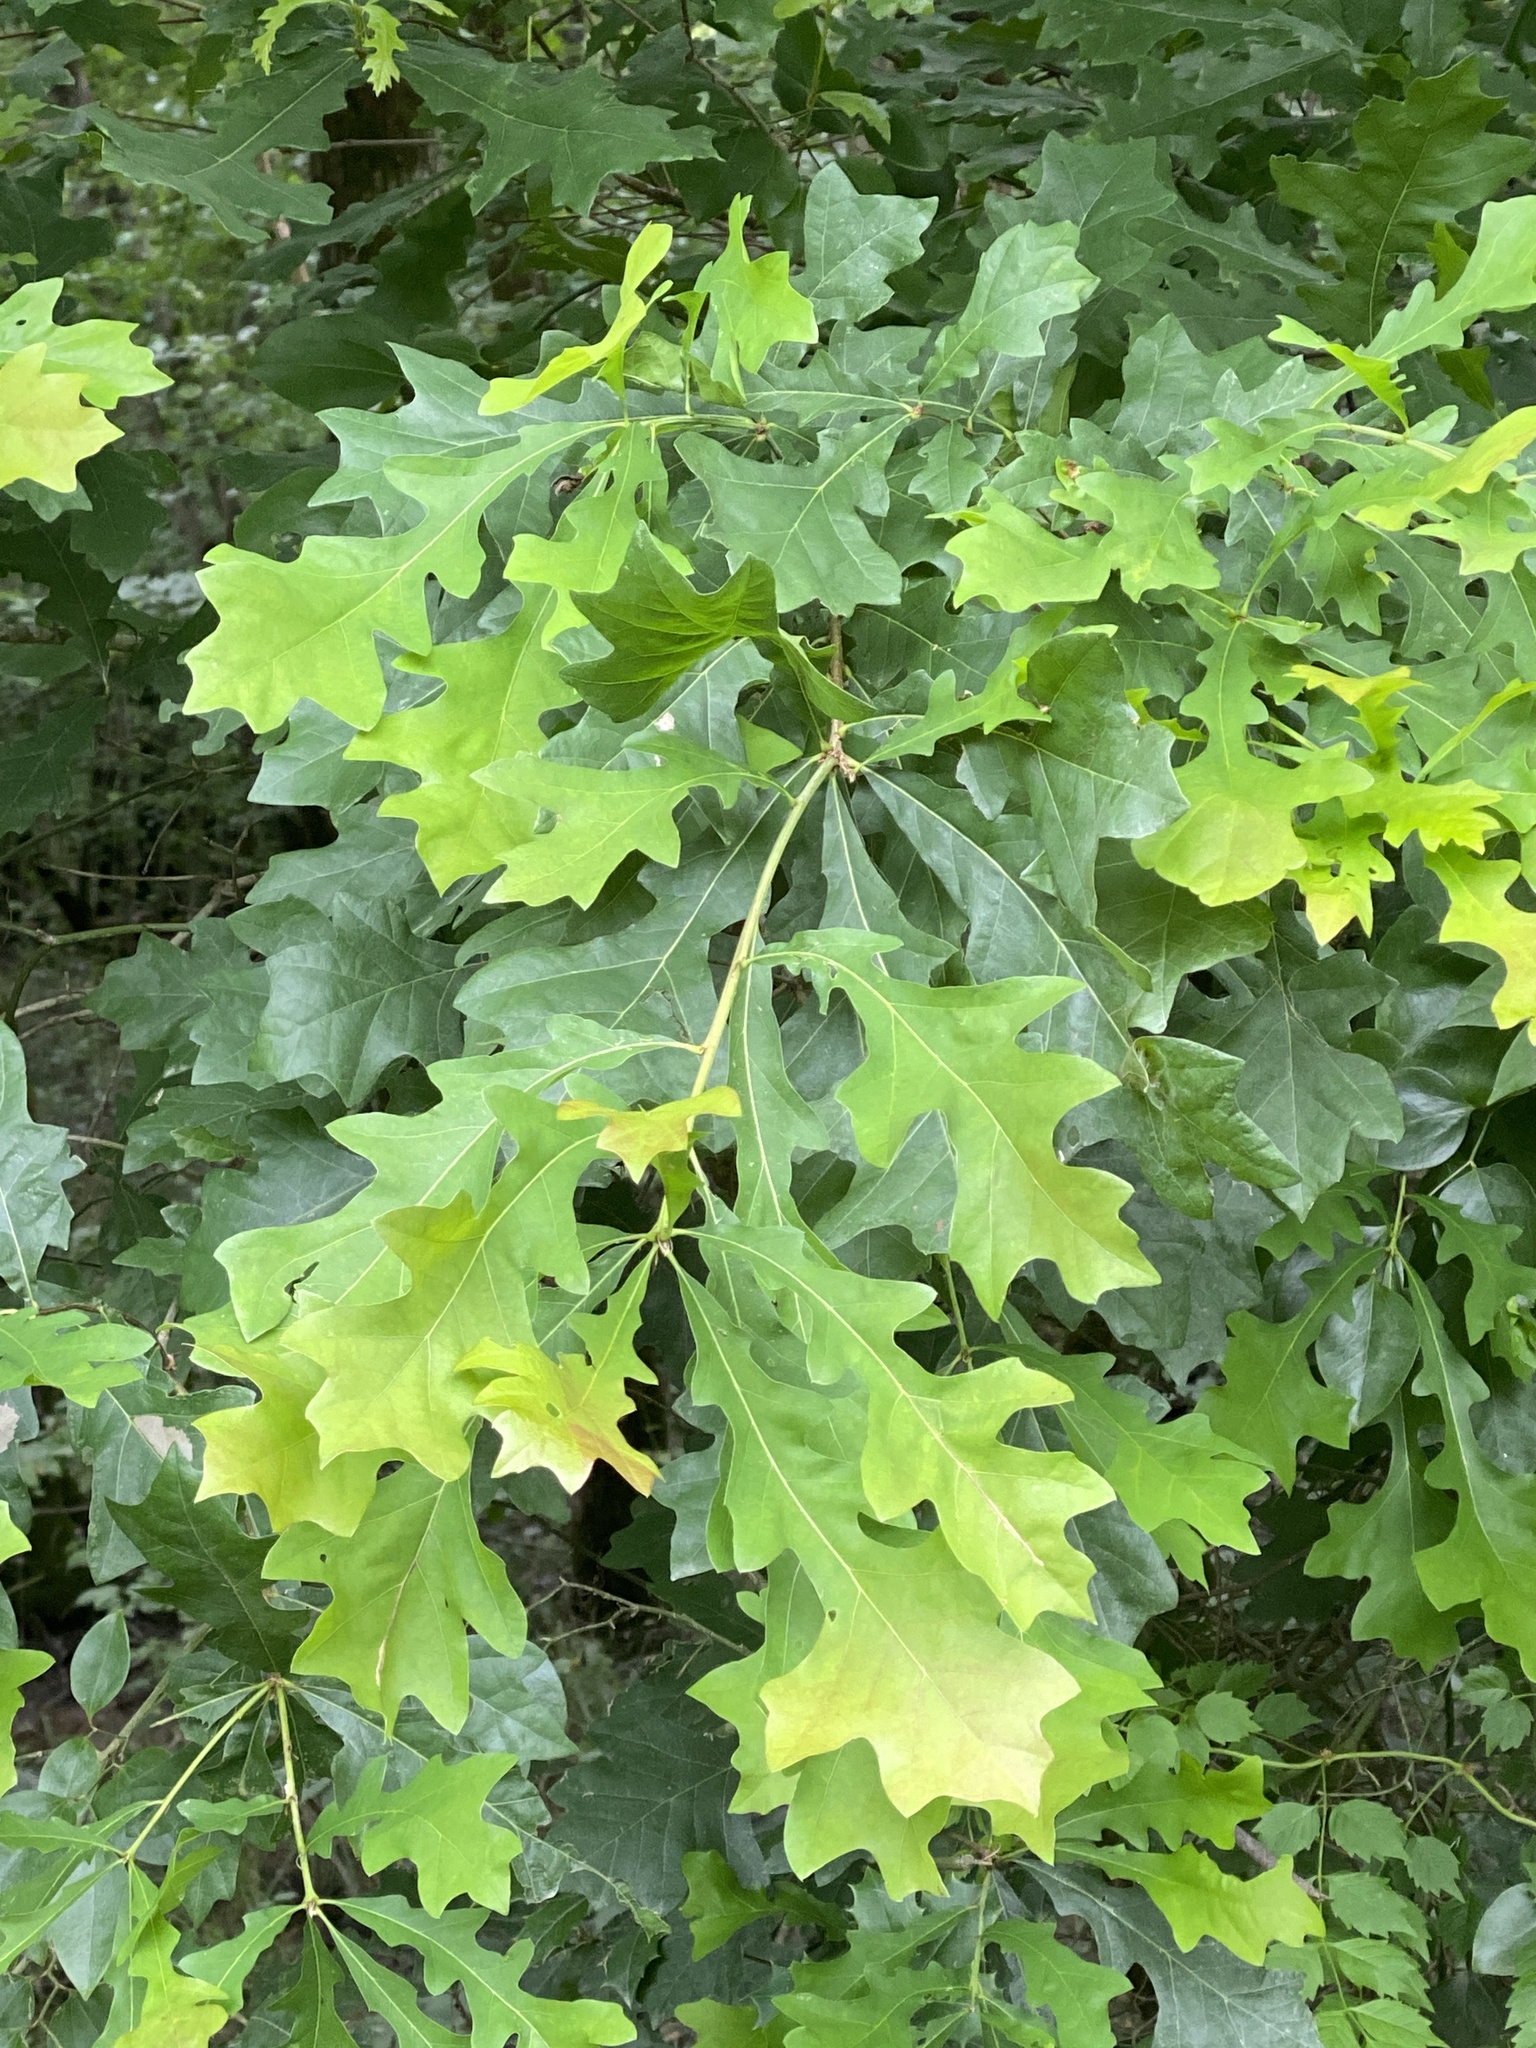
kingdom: Plantae
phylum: Tracheophyta
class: Magnoliopsida
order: Fagales
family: Fagaceae
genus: Quercus
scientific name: Quercus lyrata
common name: Overcup oak
